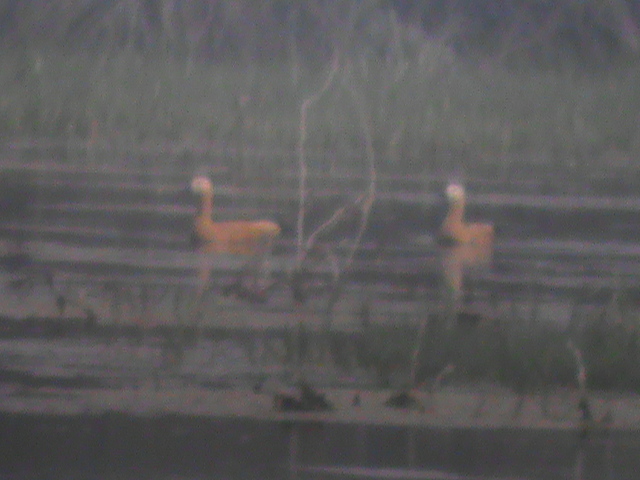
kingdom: Animalia
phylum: Chordata
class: Aves
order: Anseriformes
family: Anatidae
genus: Tadorna
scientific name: Tadorna ferruginea
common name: Ruddy shelduck
